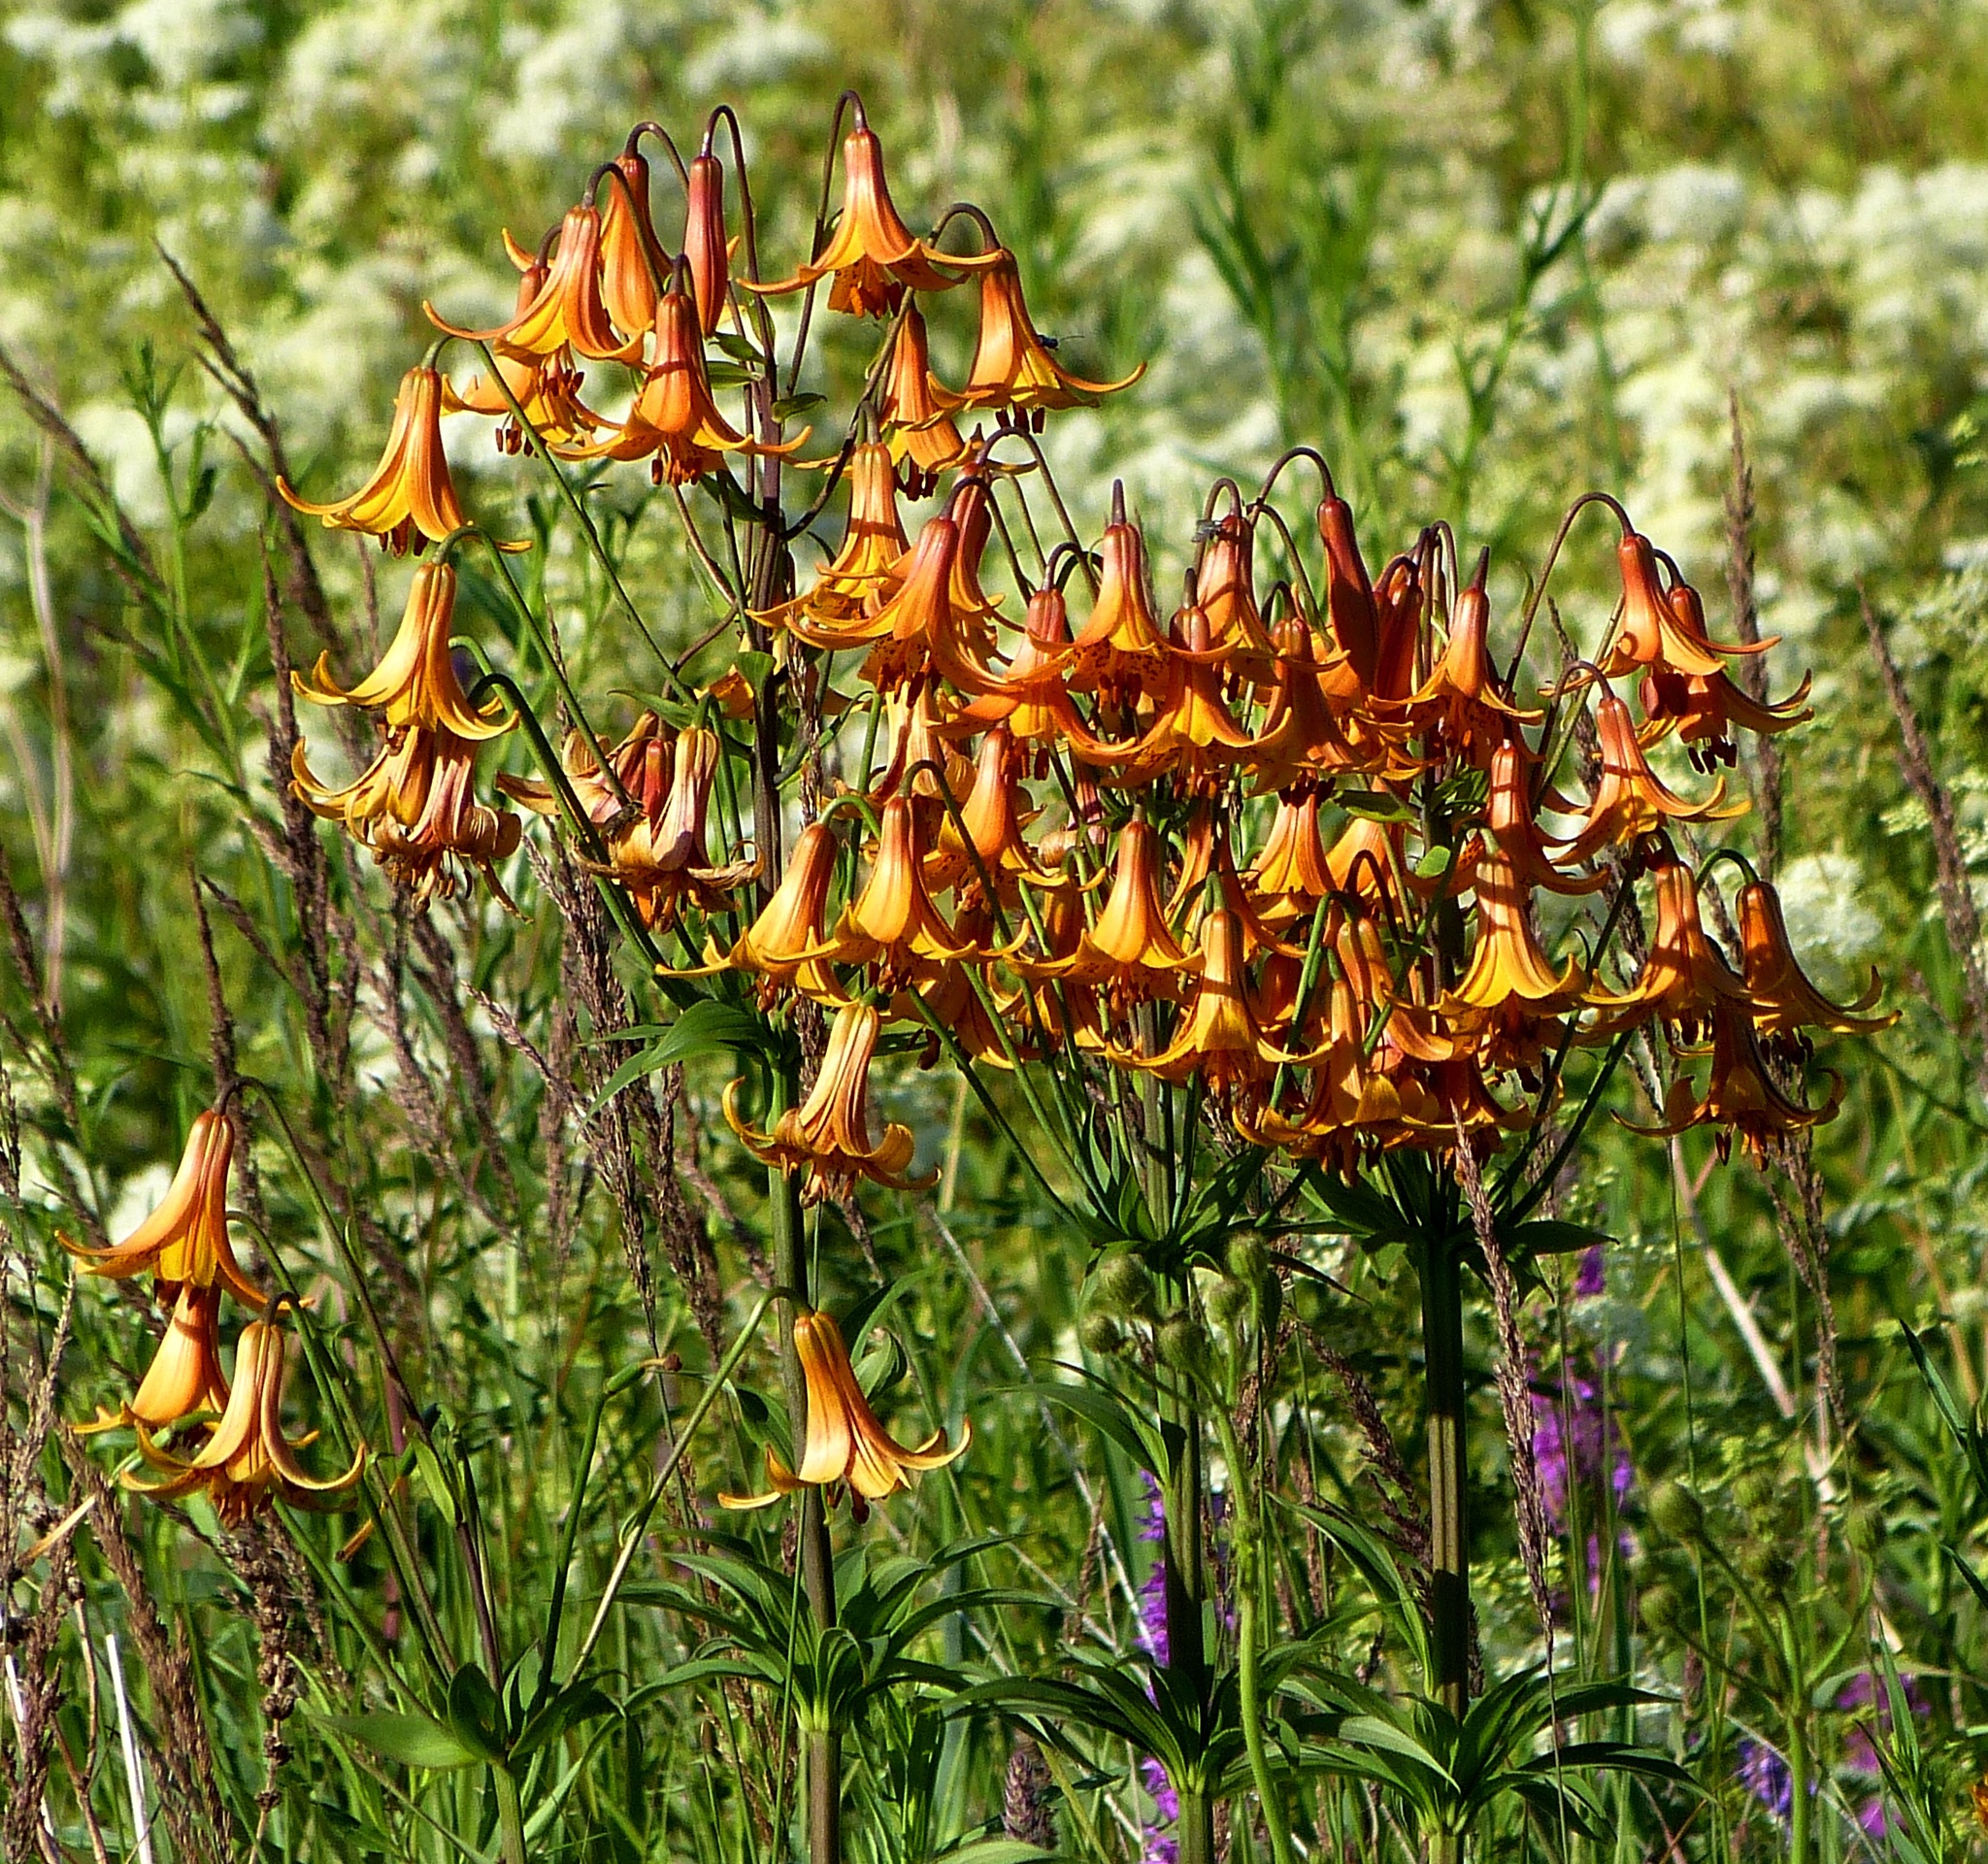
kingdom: Plantae
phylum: Tracheophyta
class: Liliopsida
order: Liliales
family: Liliaceae
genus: Lilium
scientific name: Lilium canadense
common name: Canada lily
